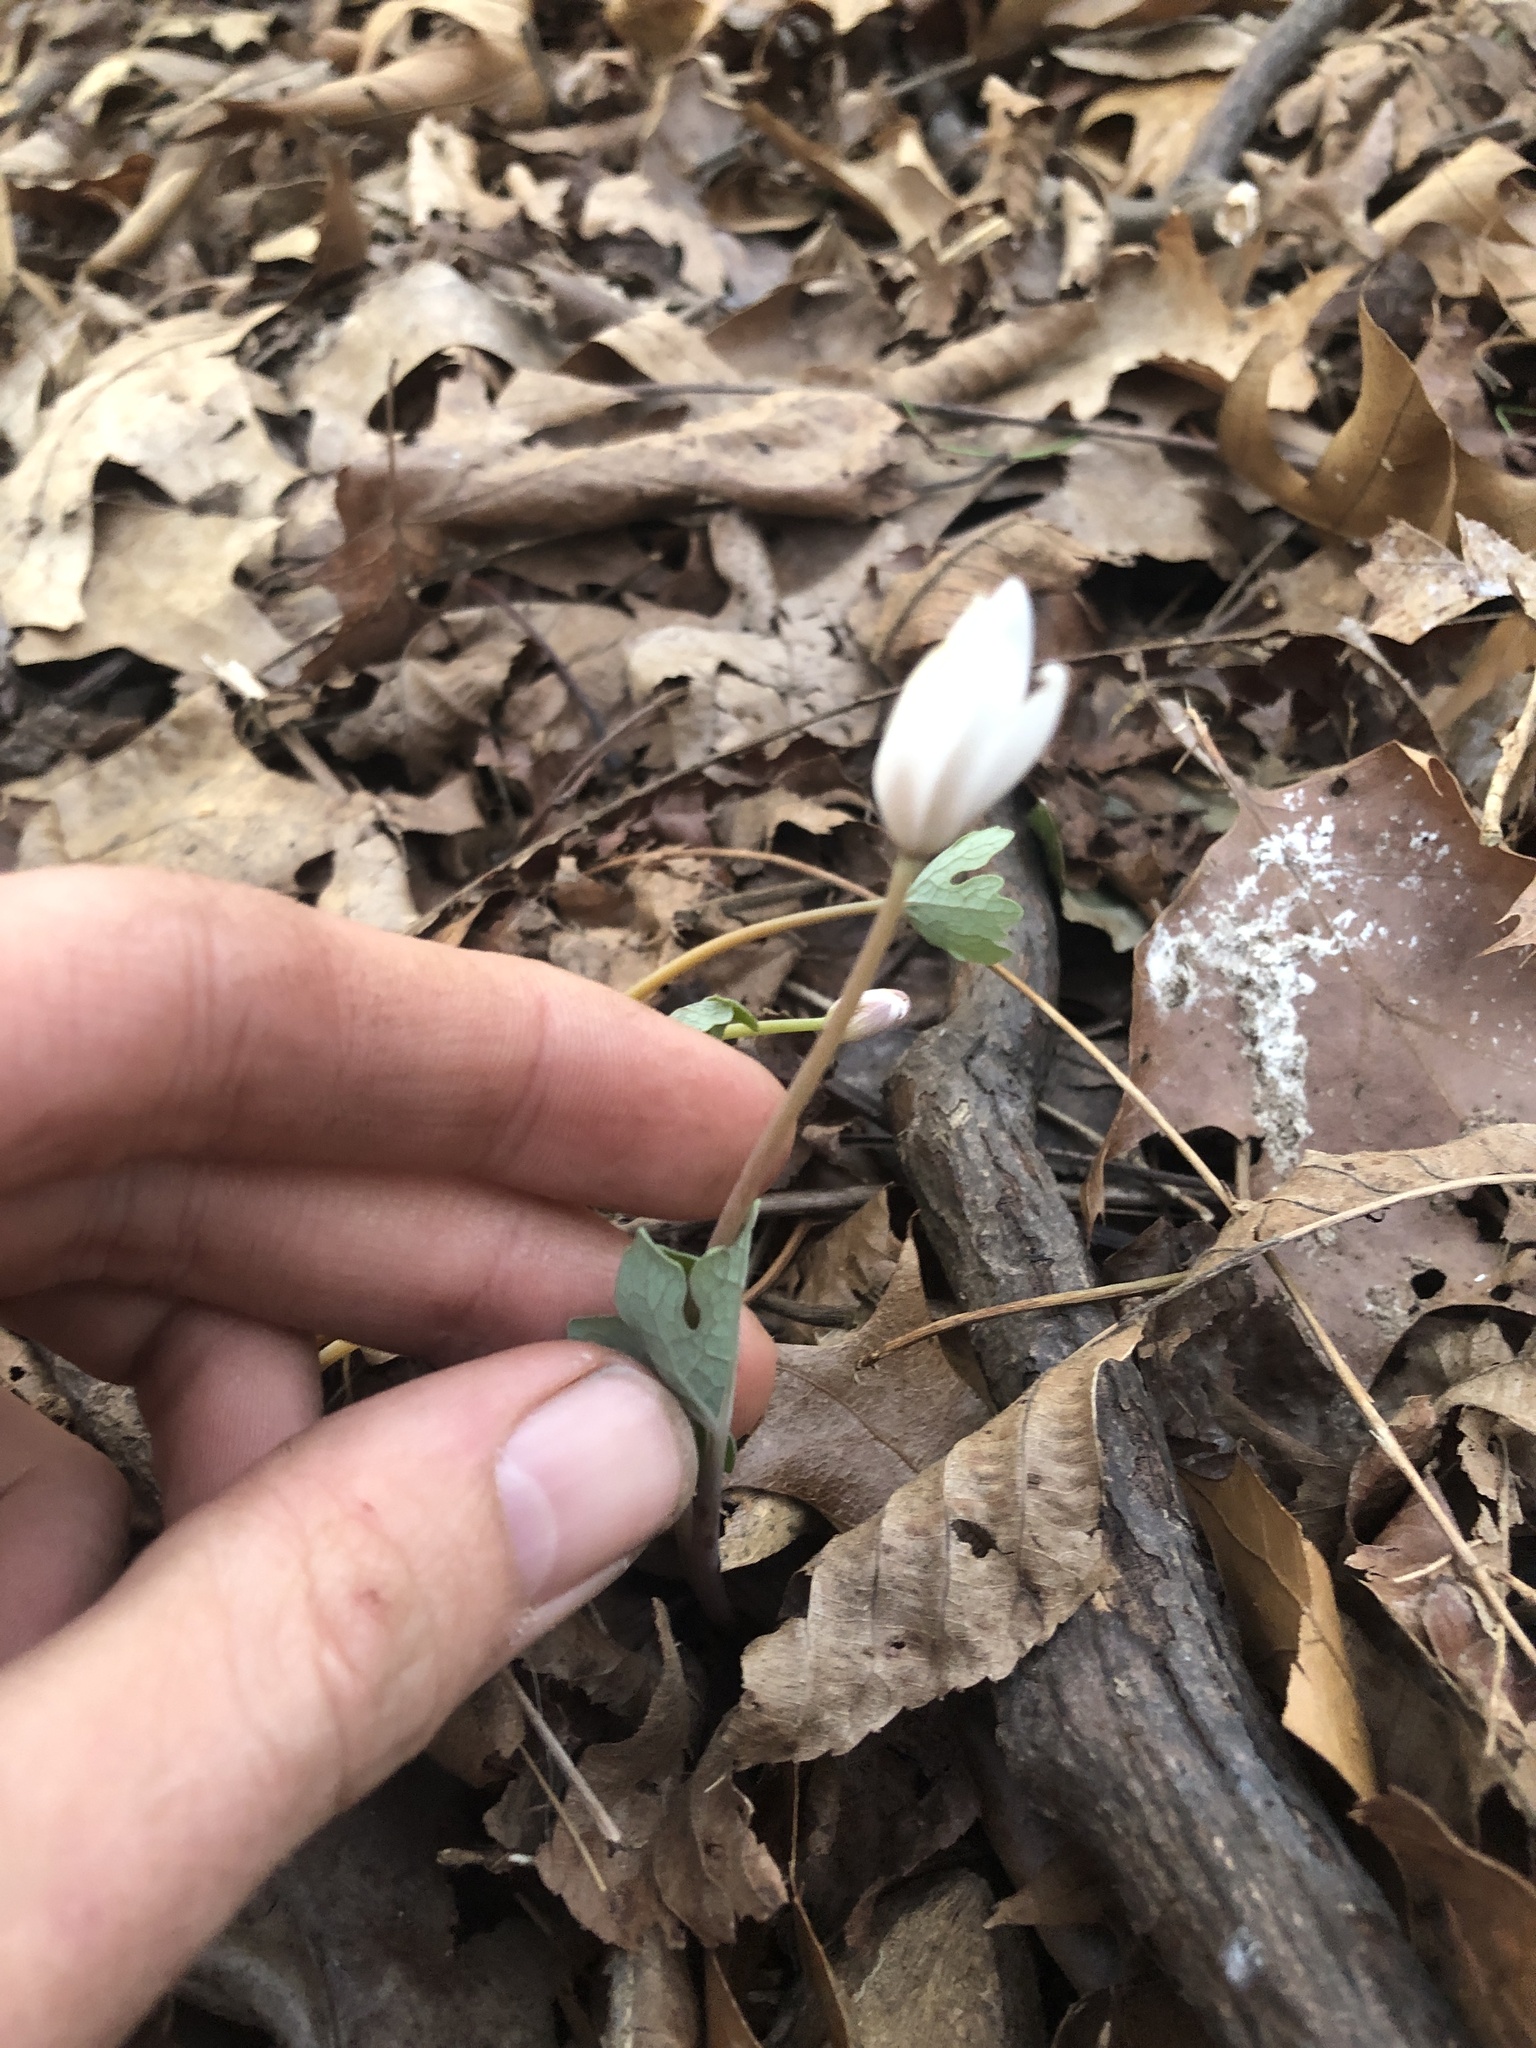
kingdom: Plantae
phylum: Tracheophyta
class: Magnoliopsida
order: Ranunculales
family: Papaveraceae
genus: Sanguinaria
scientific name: Sanguinaria canadensis
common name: Bloodroot
